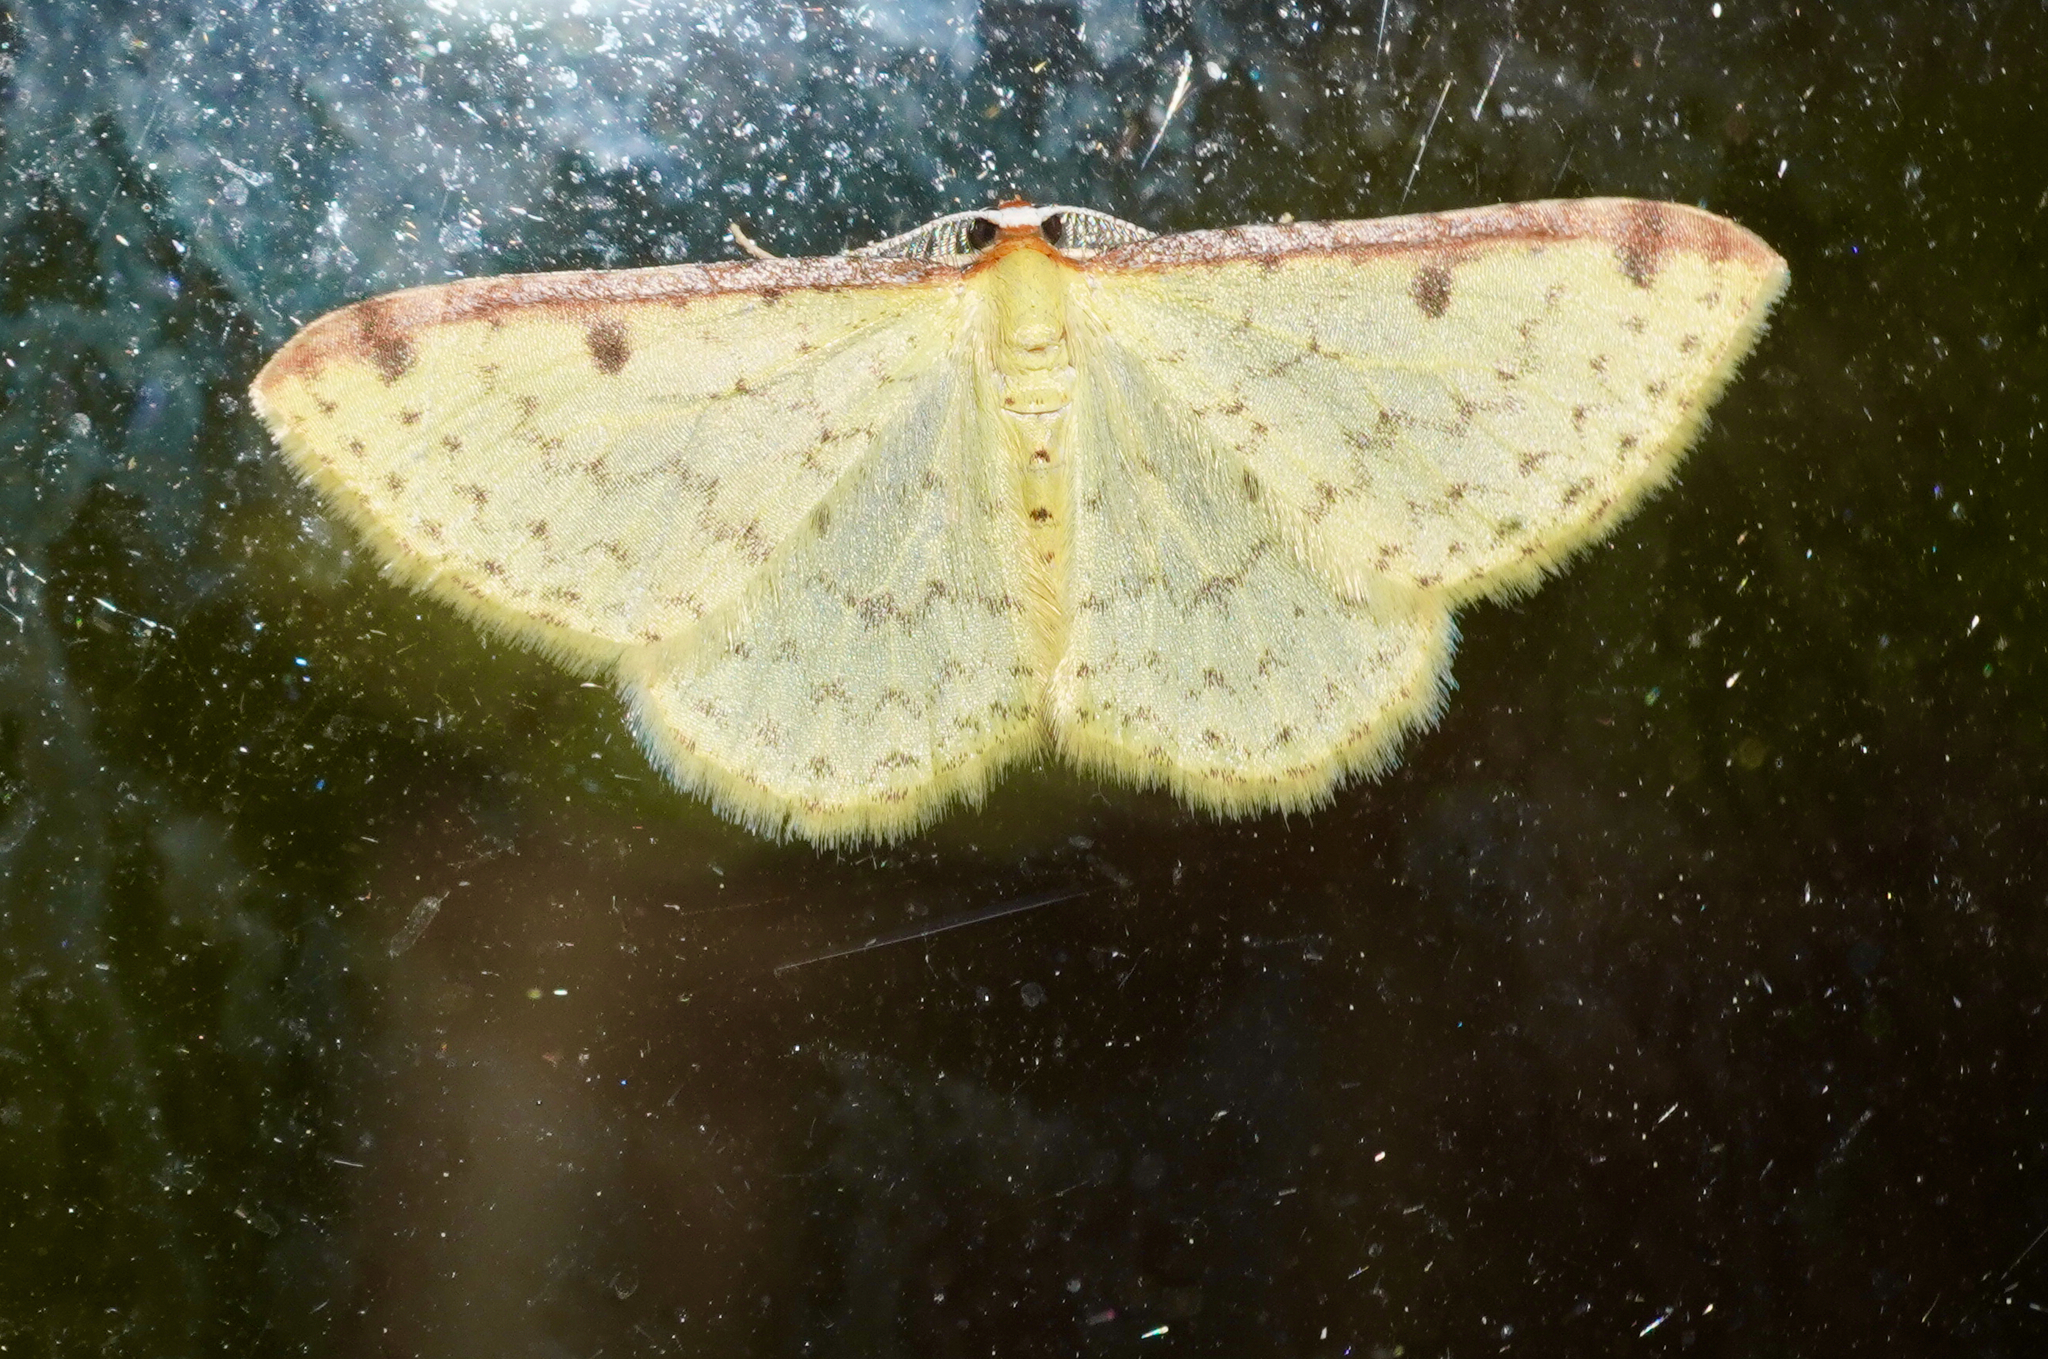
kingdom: Animalia
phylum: Arthropoda
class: Insecta
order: Lepidoptera
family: Geometridae
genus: Epiphryne
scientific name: Epiphryne undosata
